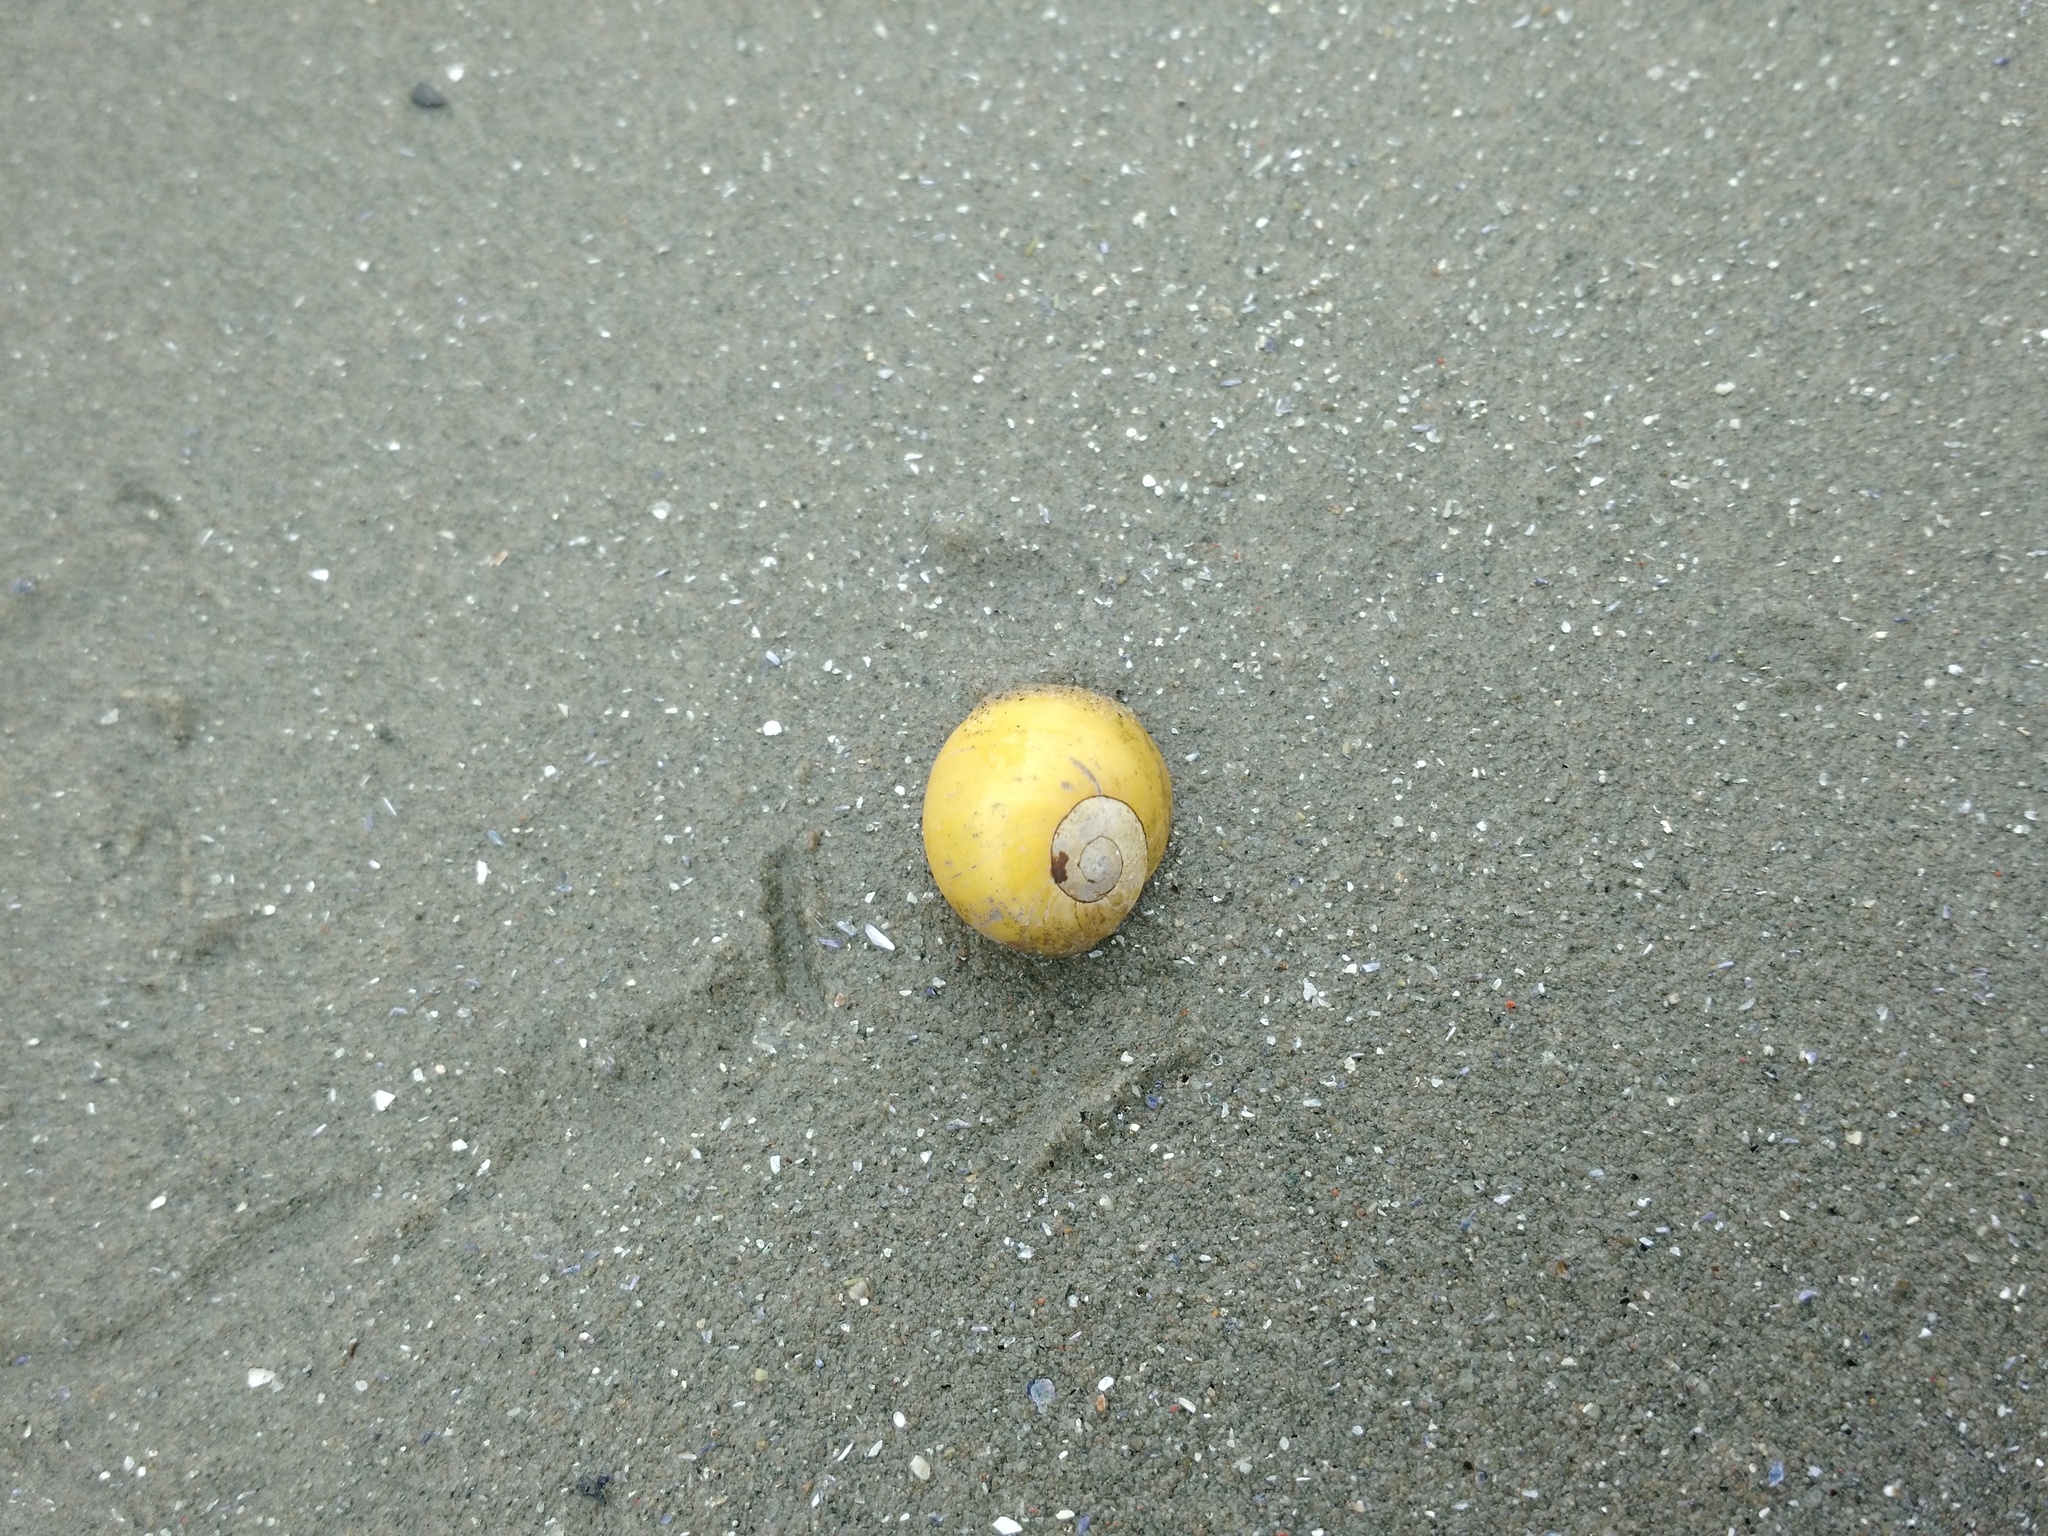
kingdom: Animalia
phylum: Mollusca
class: Gastropoda
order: Littorinimorpha
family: Littorinidae
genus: Littorina
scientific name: Littorina obtusata
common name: Flat periwinkle
